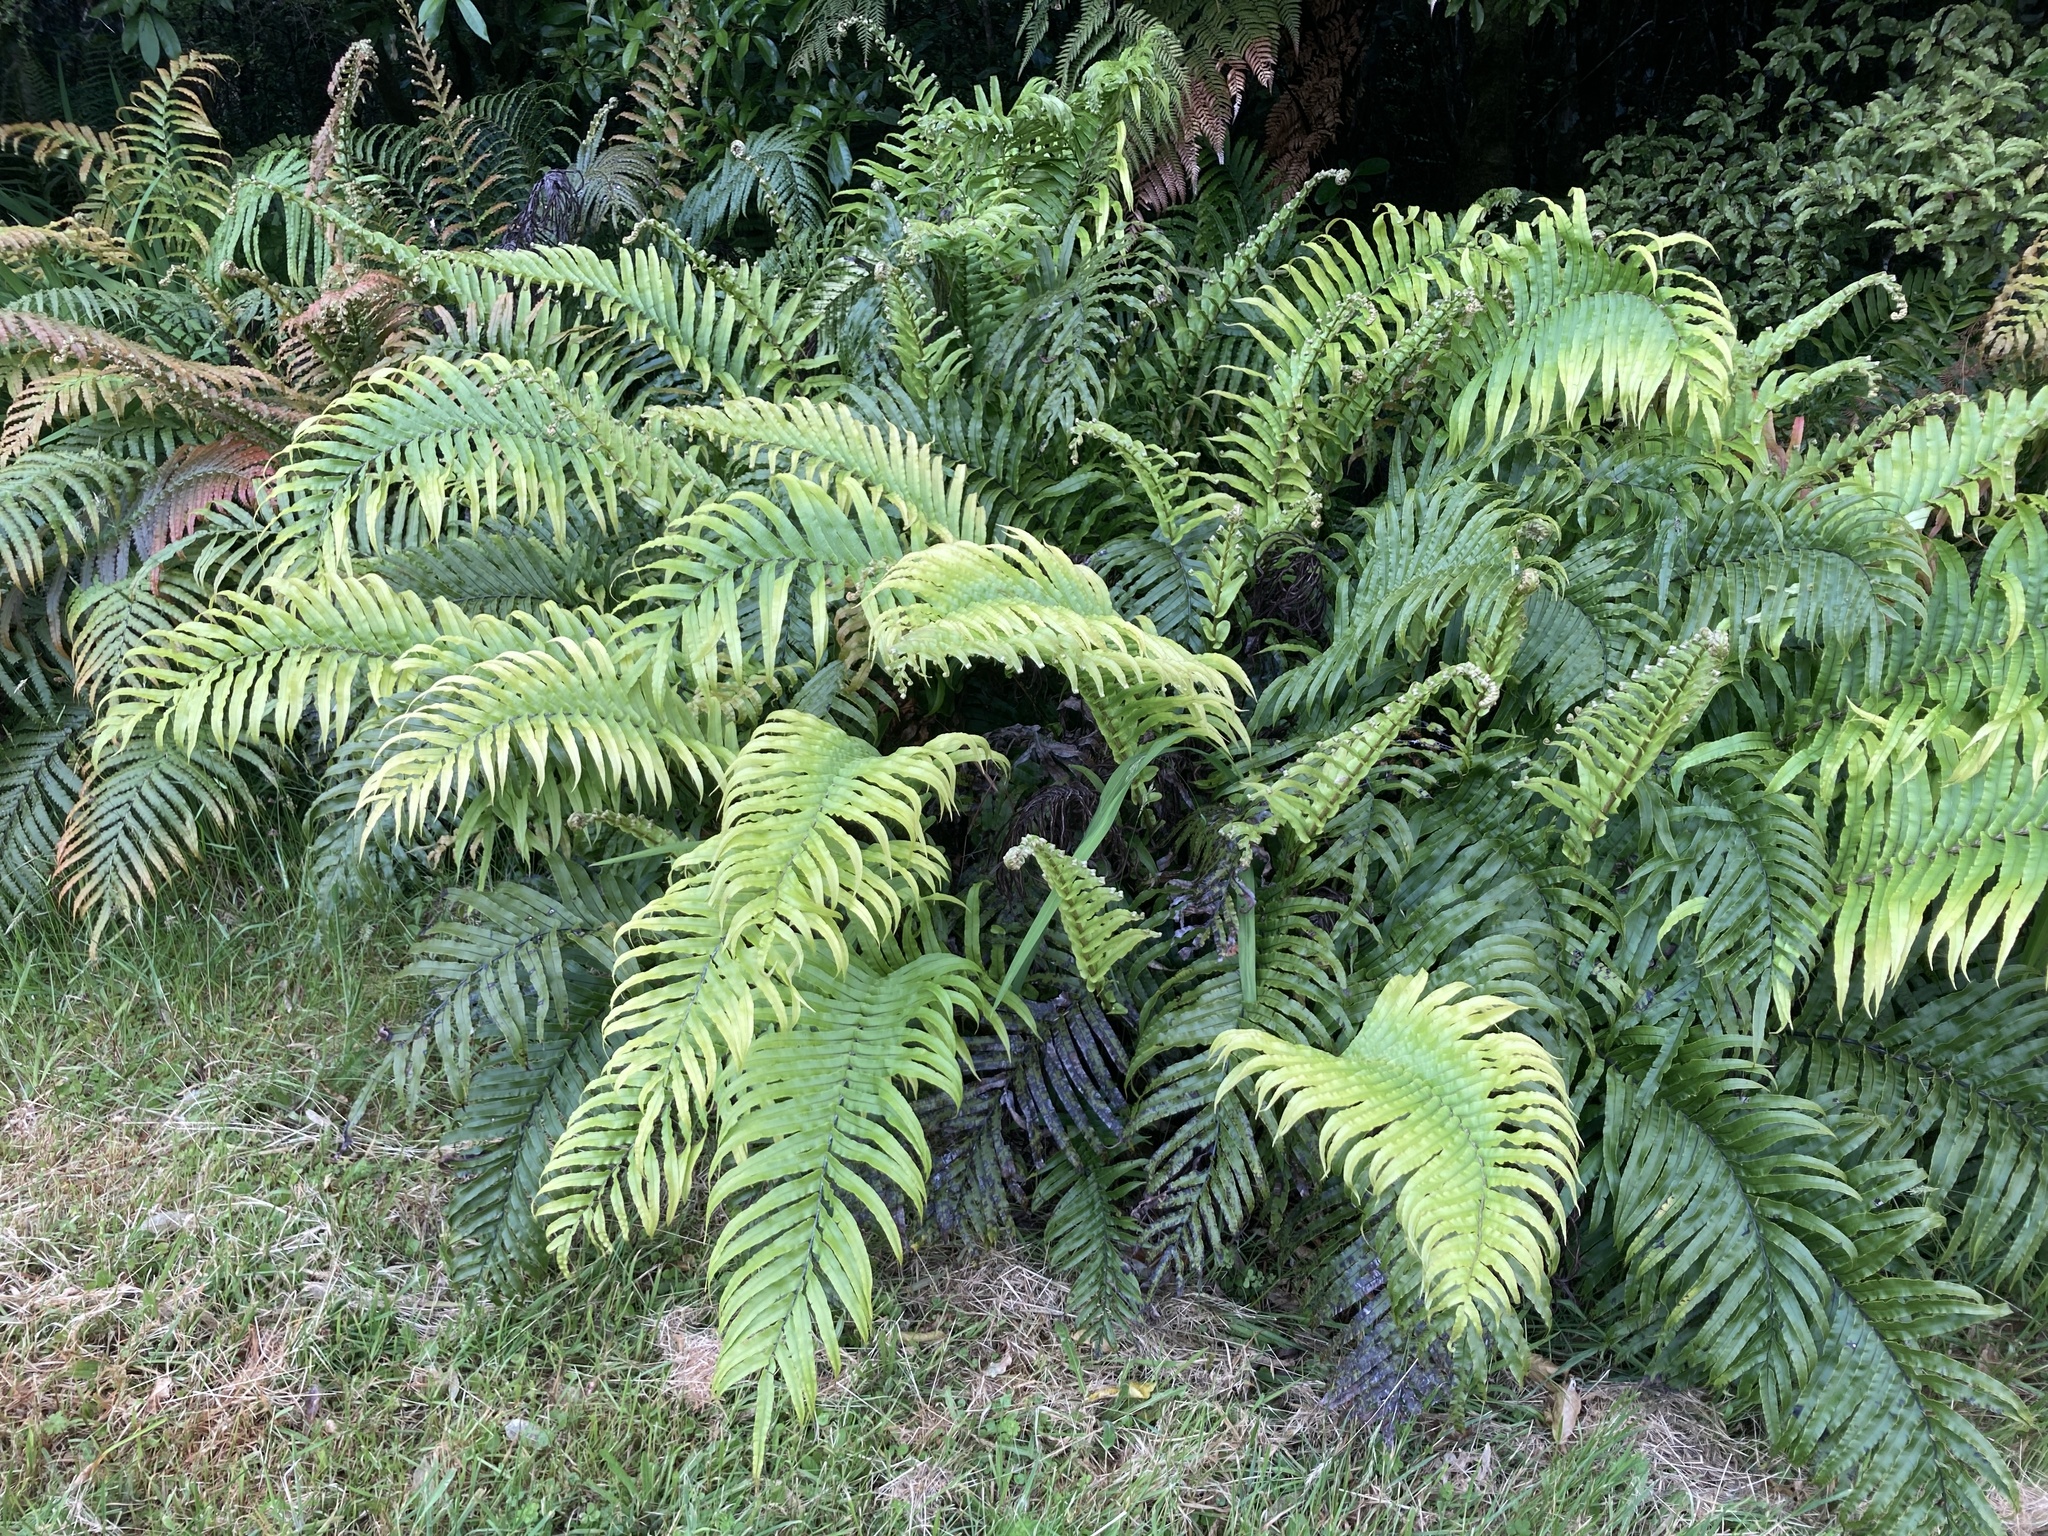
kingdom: Plantae
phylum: Tracheophyta
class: Polypodiopsida
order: Polypodiales
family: Blechnaceae
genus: Parablechnum
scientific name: Parablechnum novae-zelandiae
